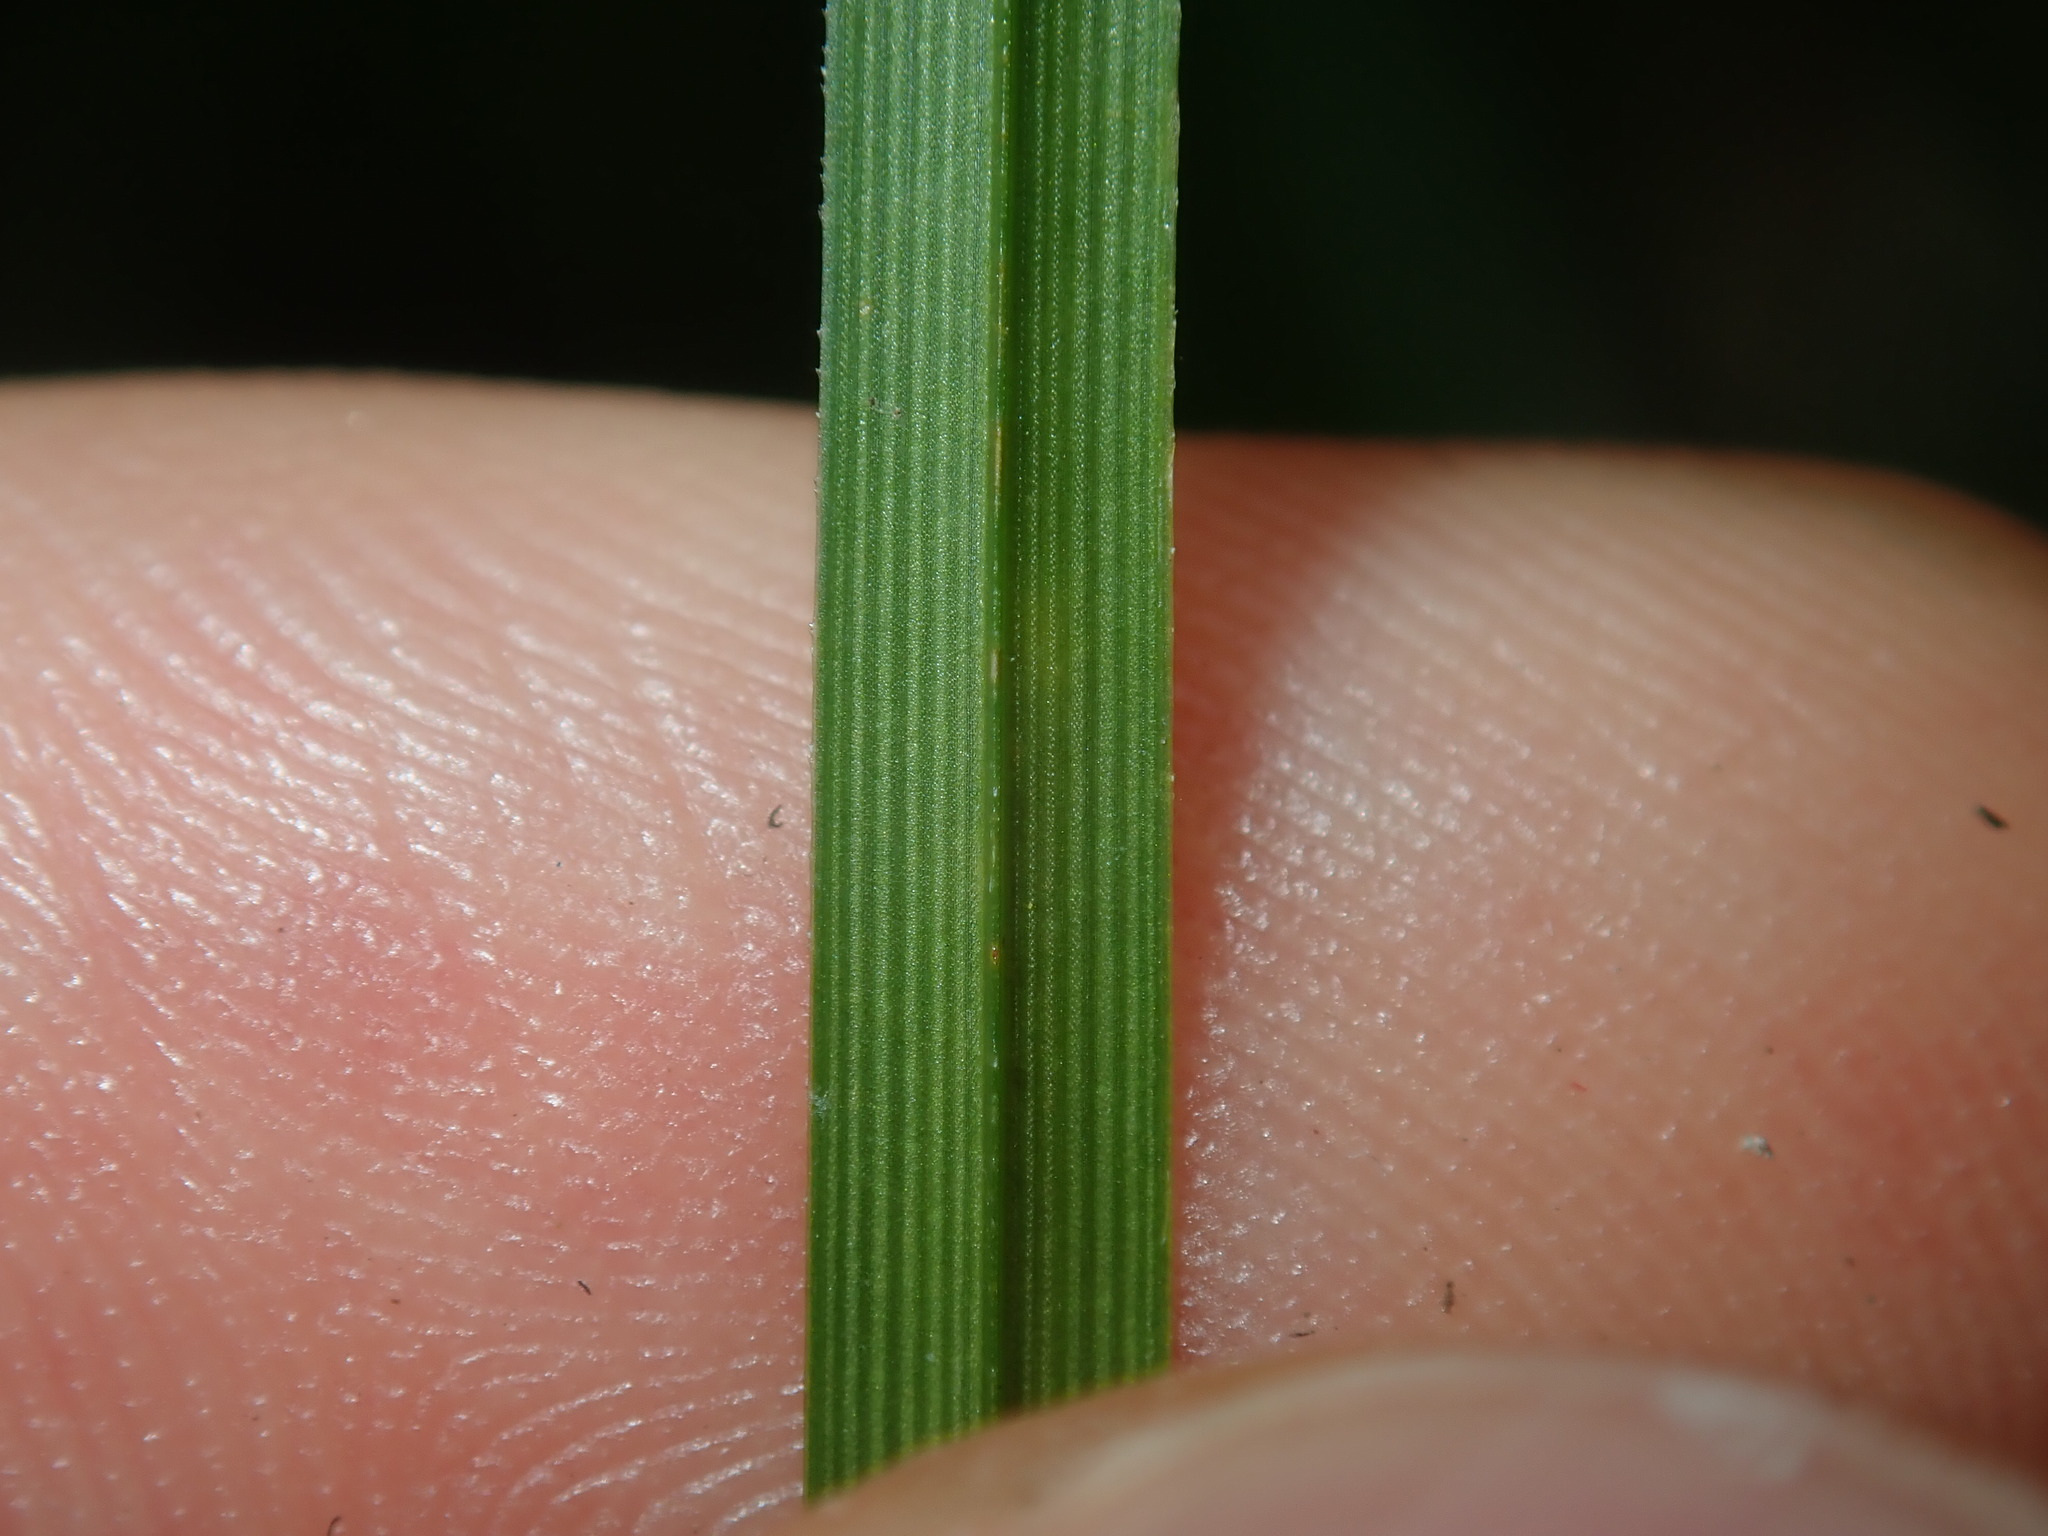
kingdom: Plantae
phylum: Tracheophyta
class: Liliopsida
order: Poales
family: Cyperaceae
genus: Cyperus
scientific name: Cyperus eragrostis
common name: Tall flatsedge
